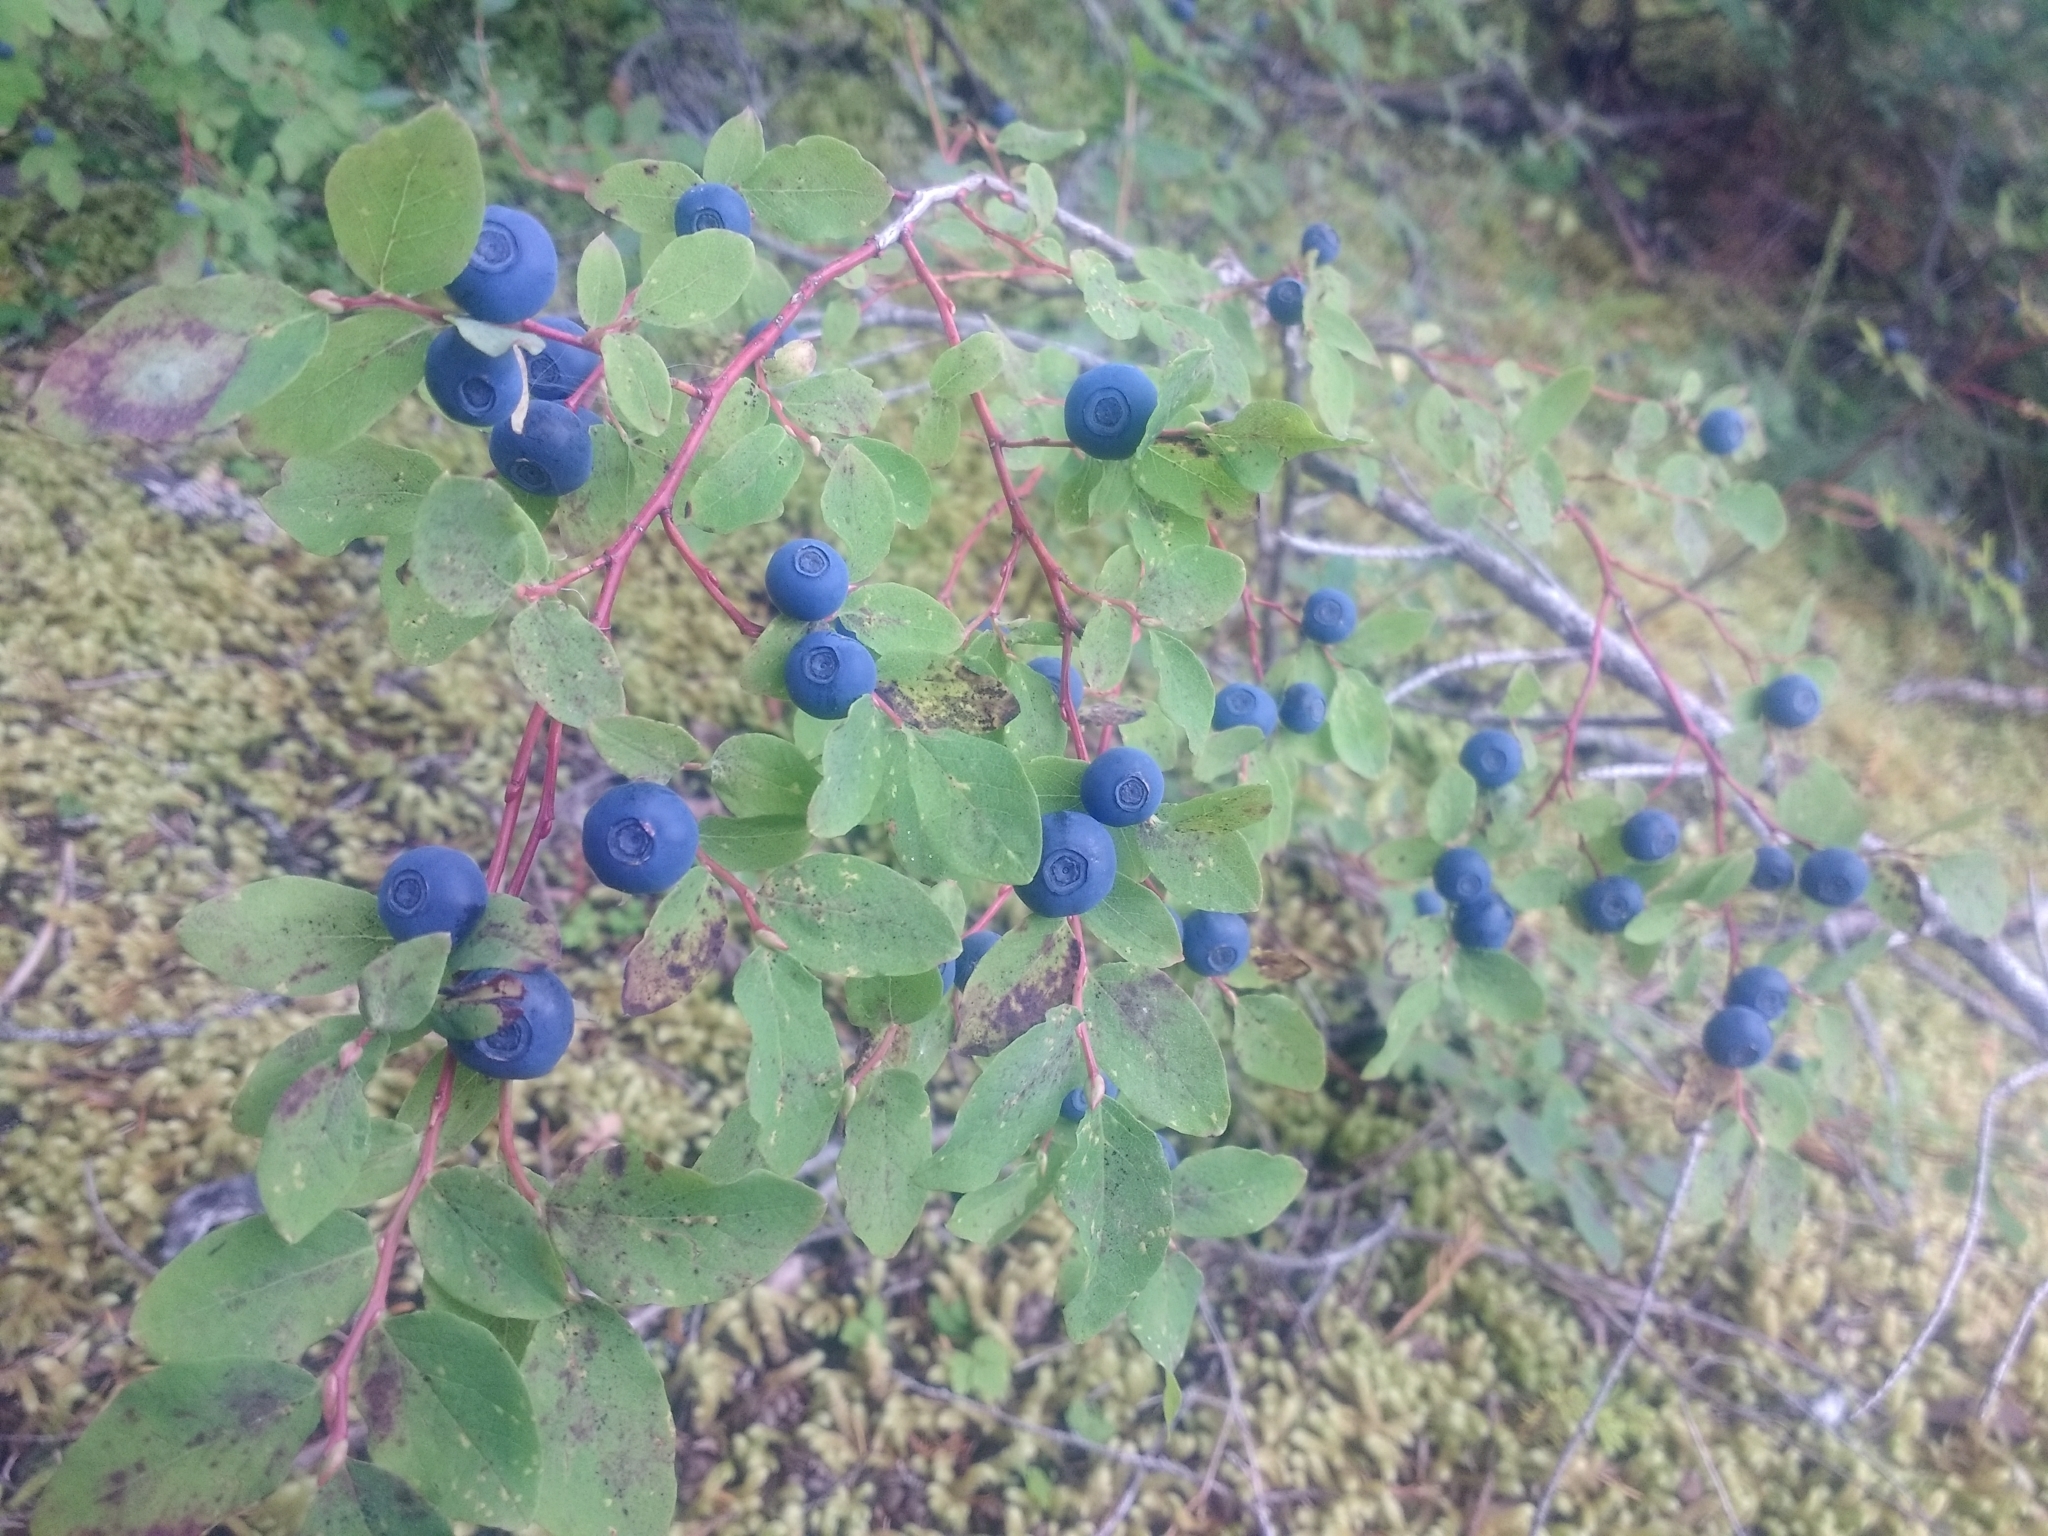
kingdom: Plantae
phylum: Tracheophyta
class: Magnoliopsida
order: Ericales
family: Ericaceae
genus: Vaccinium
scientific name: Vaccinium ovalifolium
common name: Early blueberry
